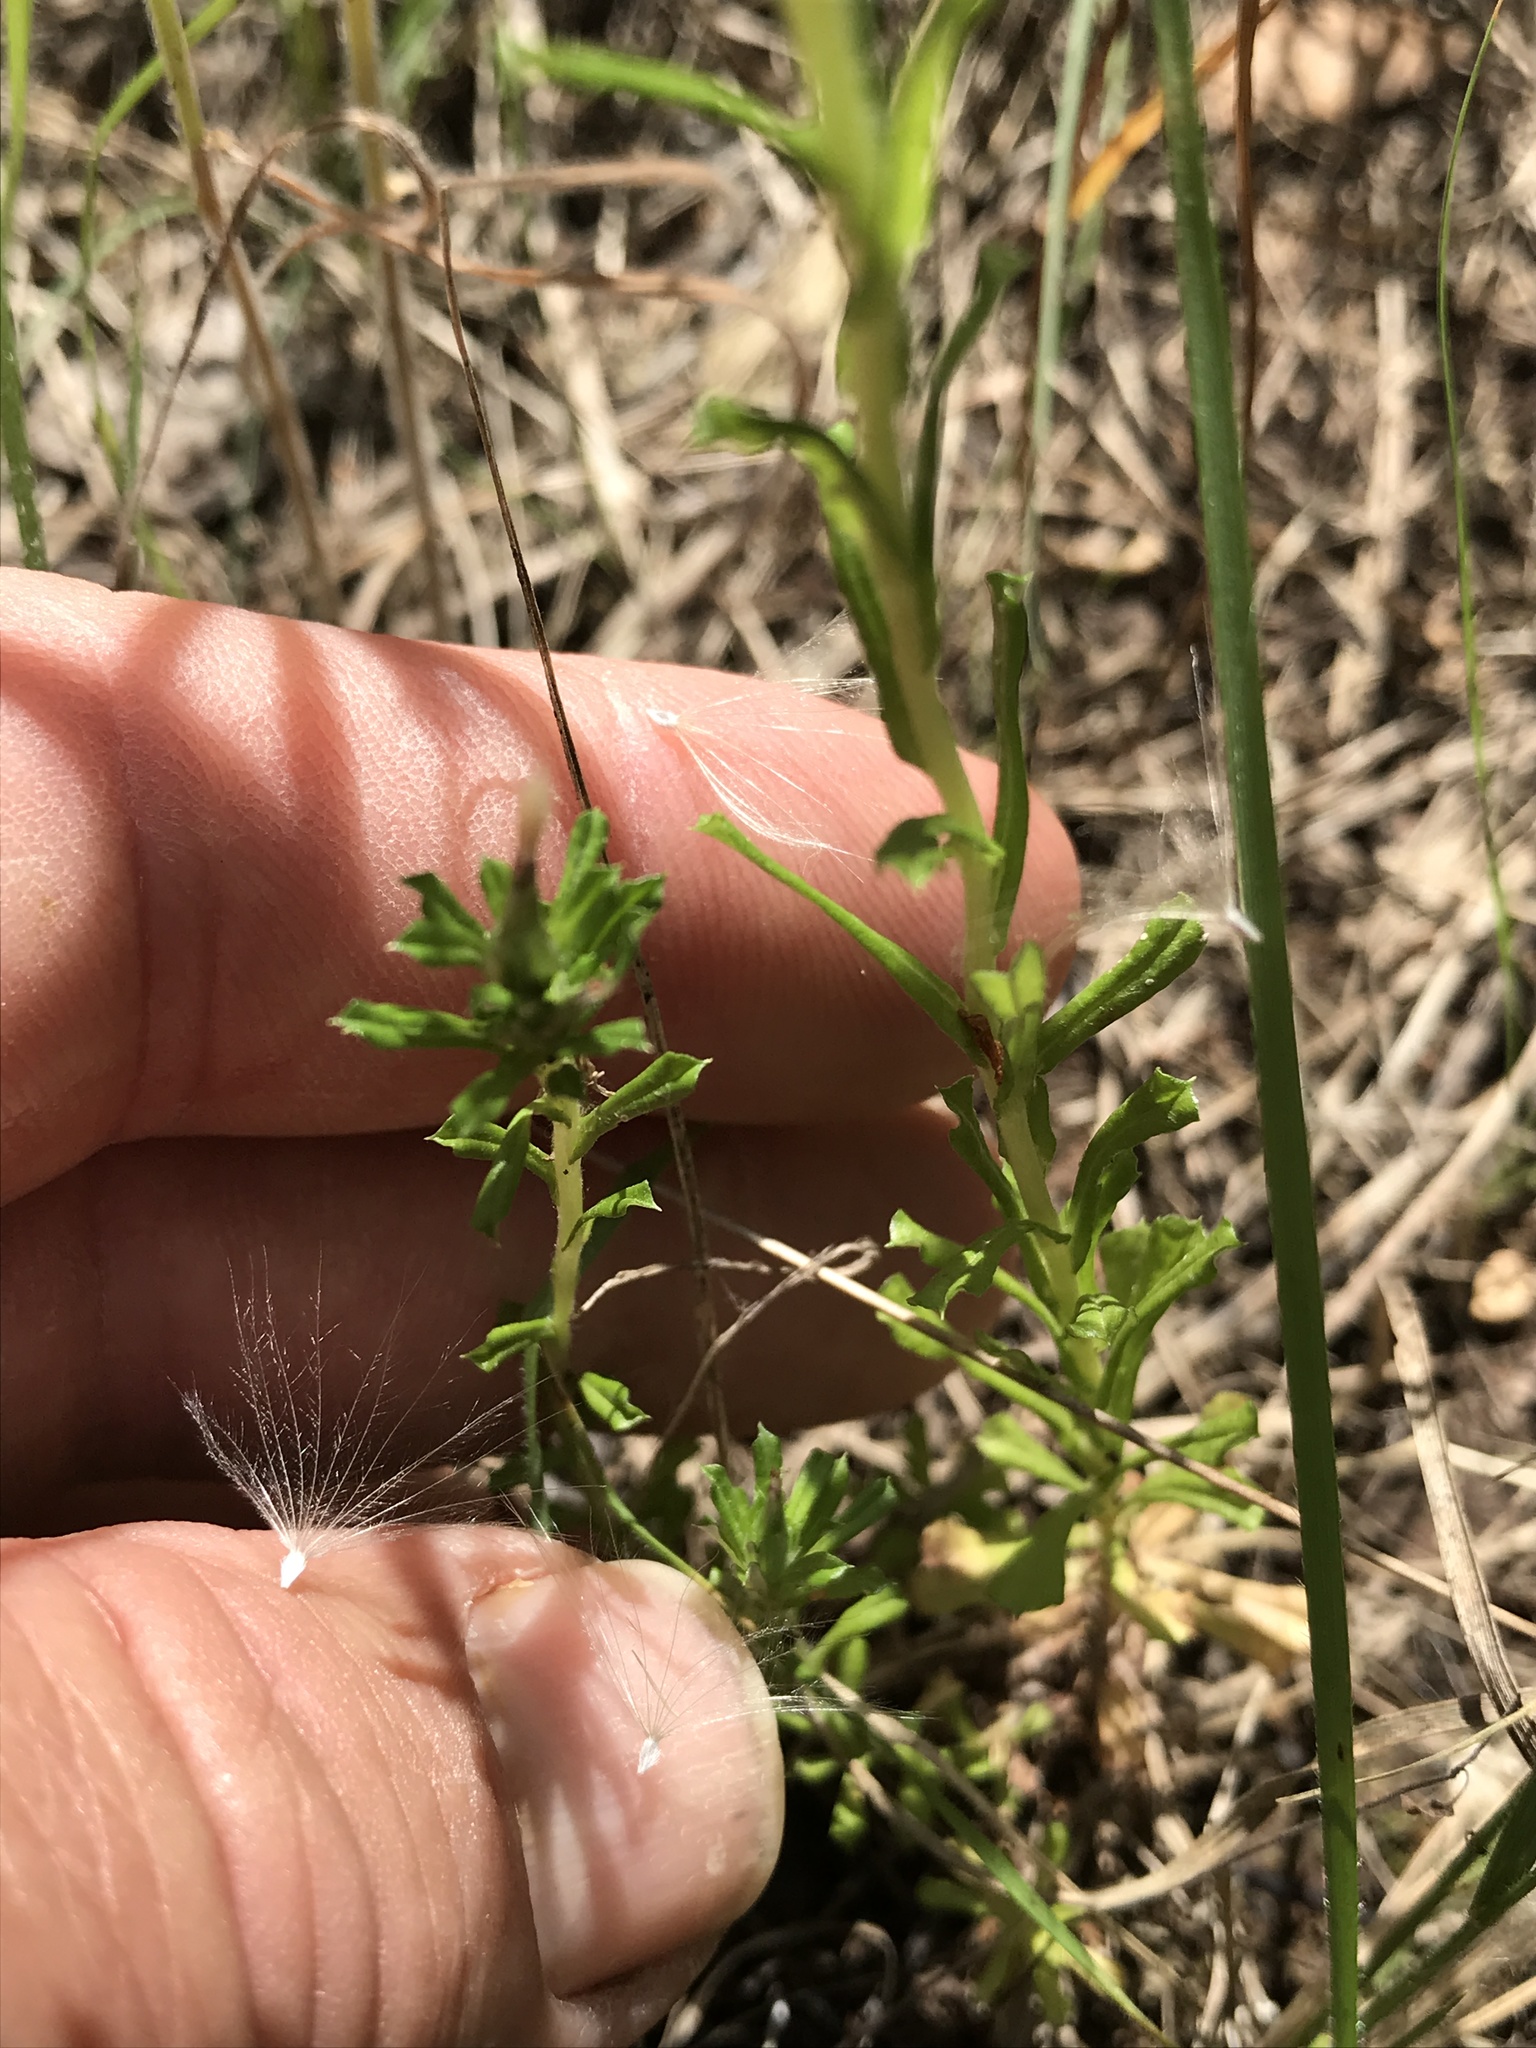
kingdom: Plantae
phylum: Tracheophyta
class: Magnoliopsida
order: Asterales
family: Asteraceae
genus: Facelis
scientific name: Facelis retusa
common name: Annual trampweed
